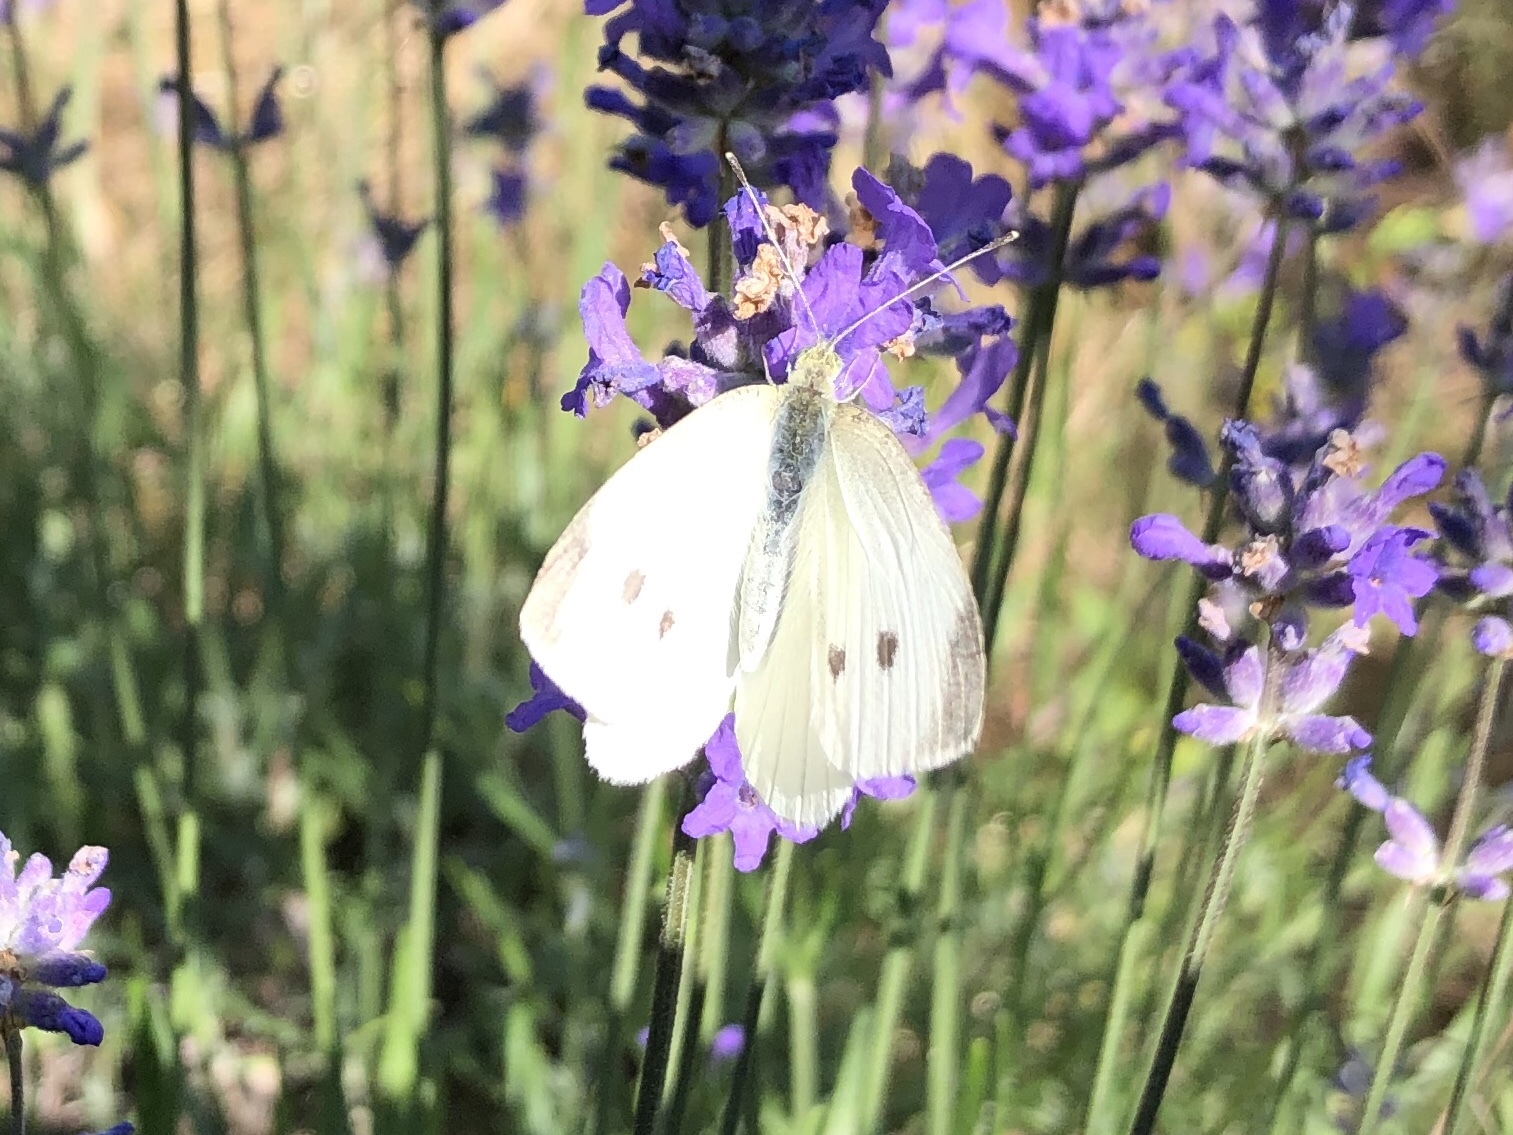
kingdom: Animalia
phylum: Arthropoda
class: Insecta
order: Lepidoptera
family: Pieridae
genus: Pieris
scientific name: Pieris rapae
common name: Small white
